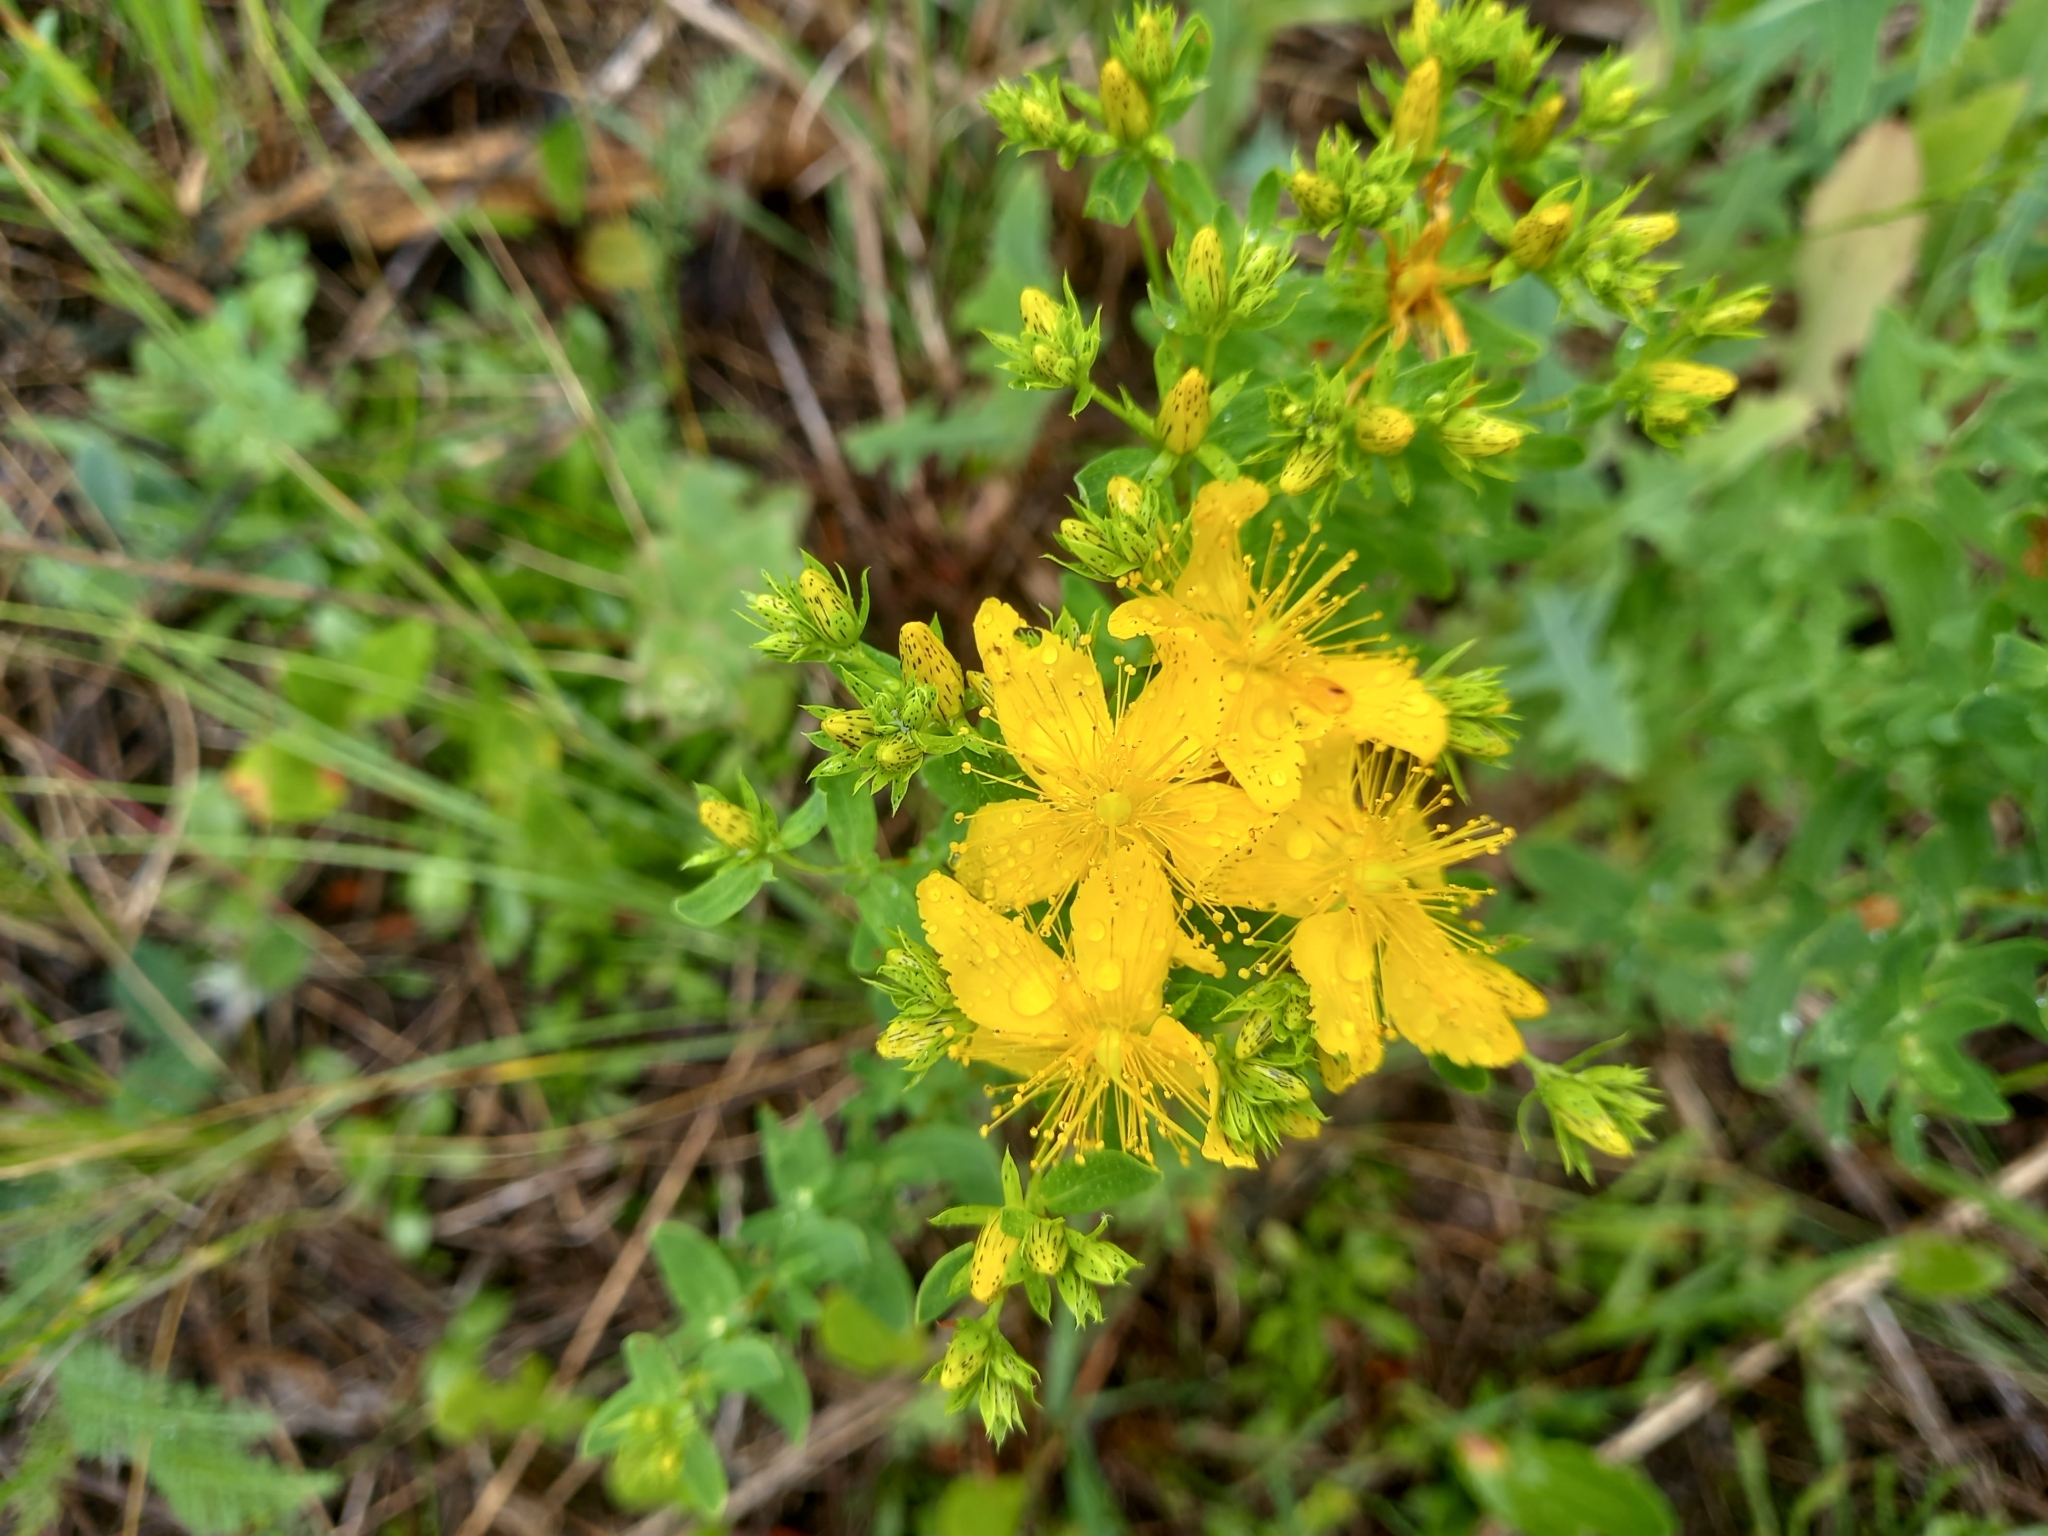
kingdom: Plantae
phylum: Tracheophyta
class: Magnoliopsida
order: Malpighiales
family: Hypericaceae
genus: Hypericum
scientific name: Hypericum perforatum
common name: Common st. johnswort
